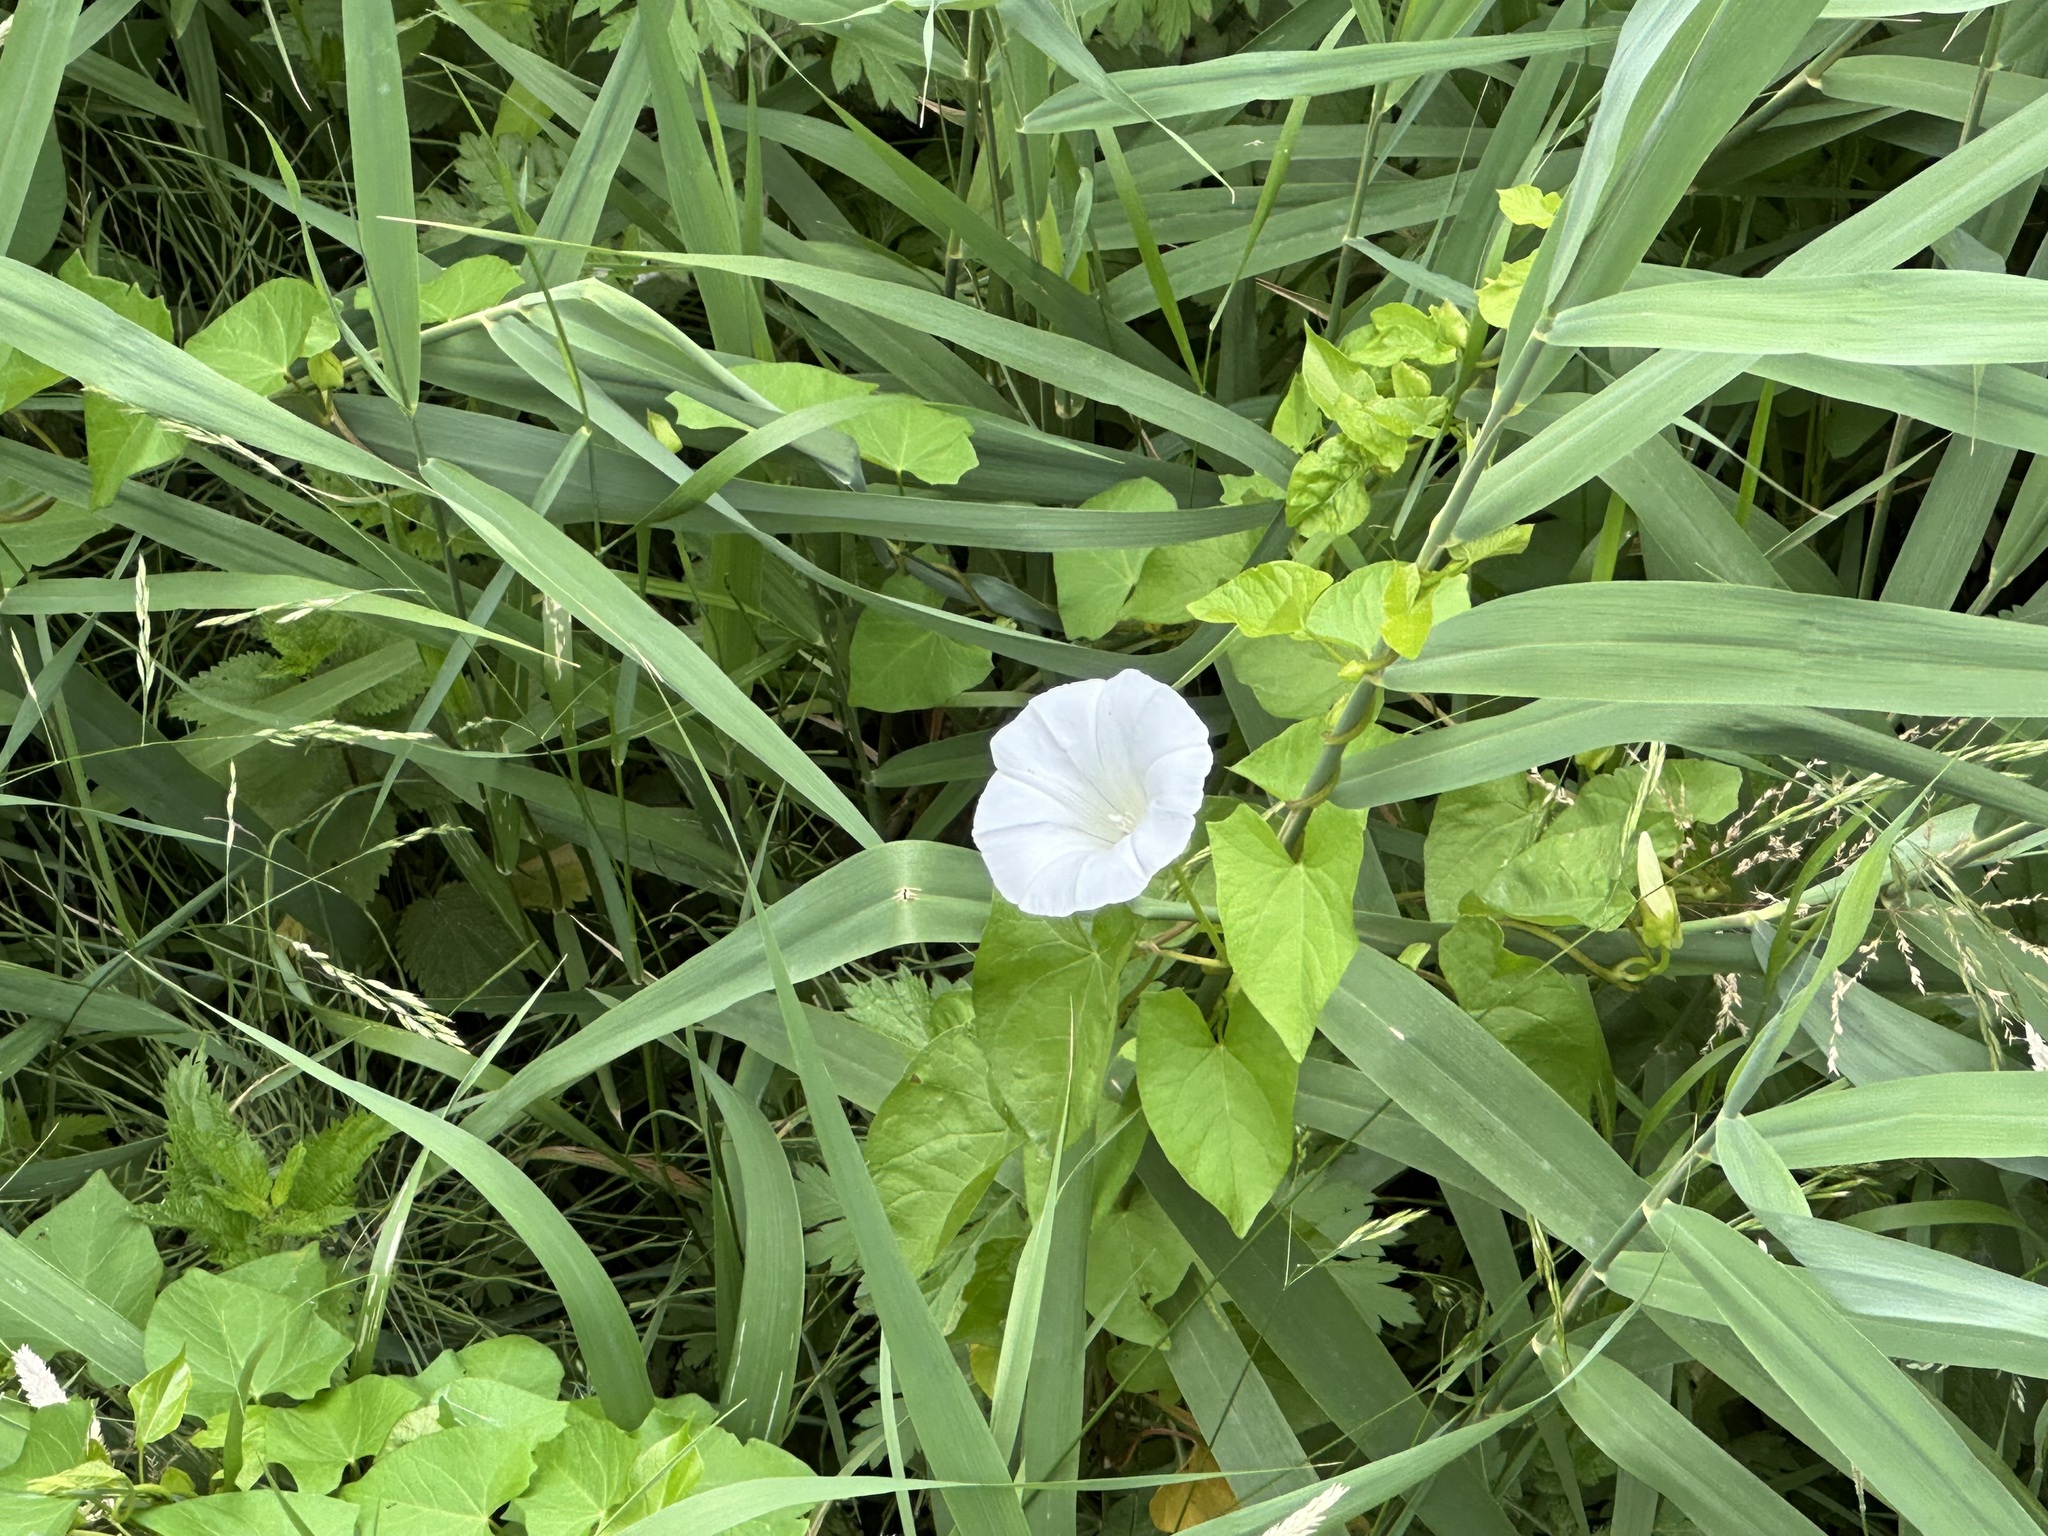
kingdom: Plantae
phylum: Tracheophyta
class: Magnoliopsida
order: Solanales
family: Convolvulaceae
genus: Calystegia
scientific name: Calystegia sepium
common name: Hedge bindweed
